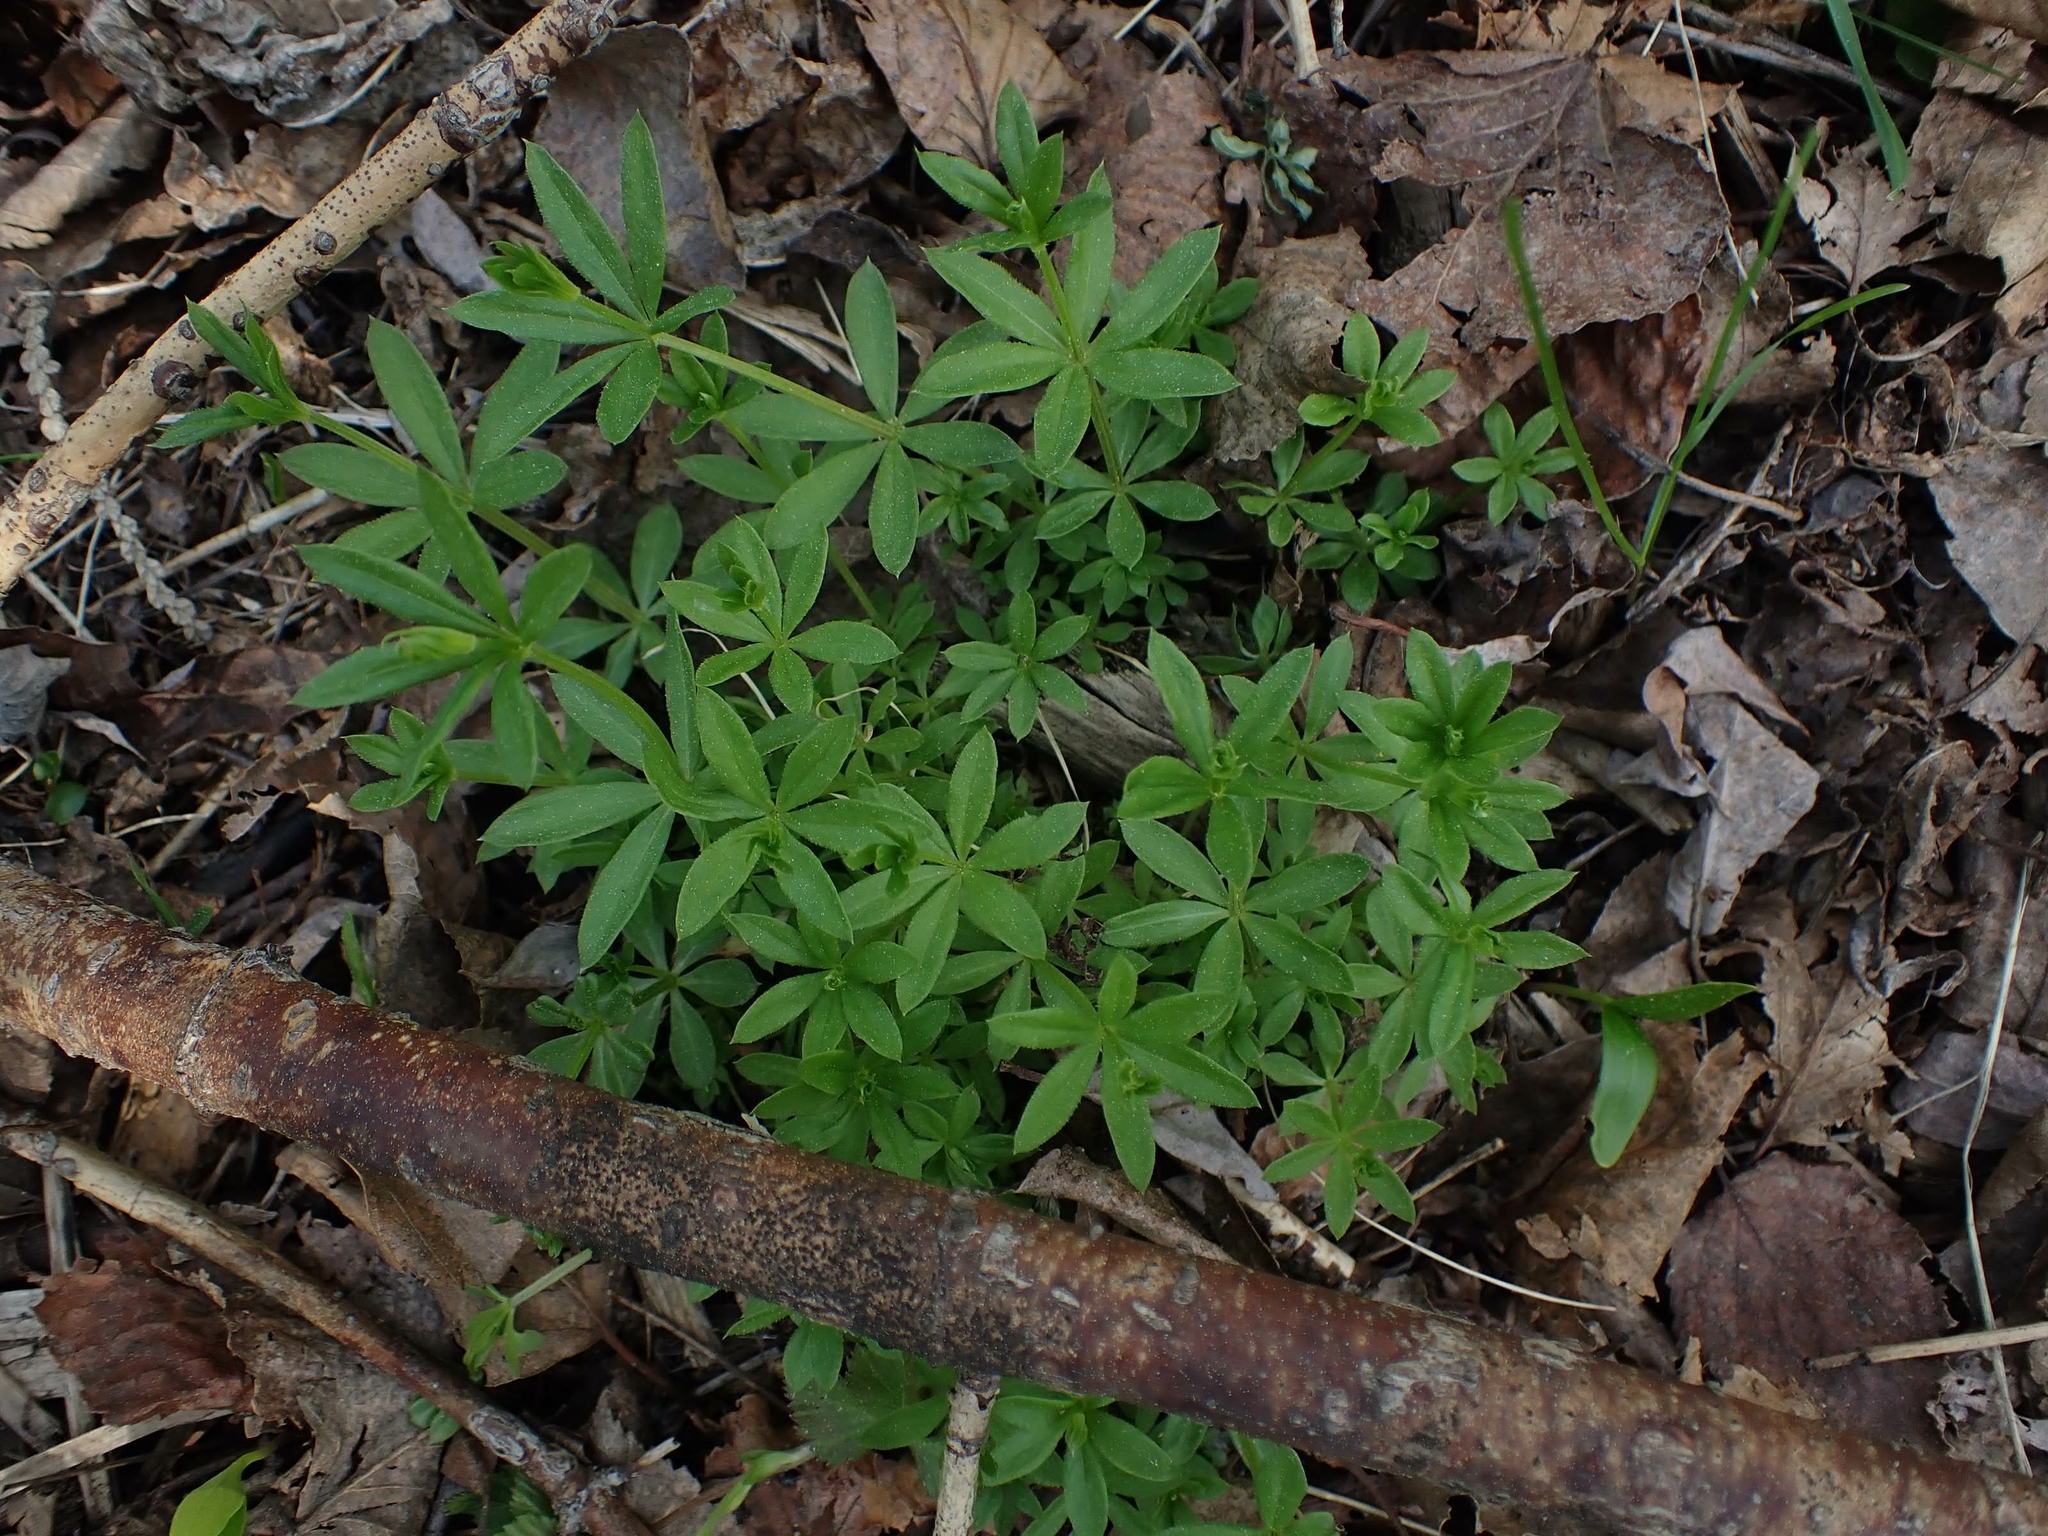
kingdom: Plantae
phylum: Tracheophyta
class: Magnoliopsida
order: Gentianales
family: Rubiaceae
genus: Galium
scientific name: Galium triflorum
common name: Fragrant bedstraw
